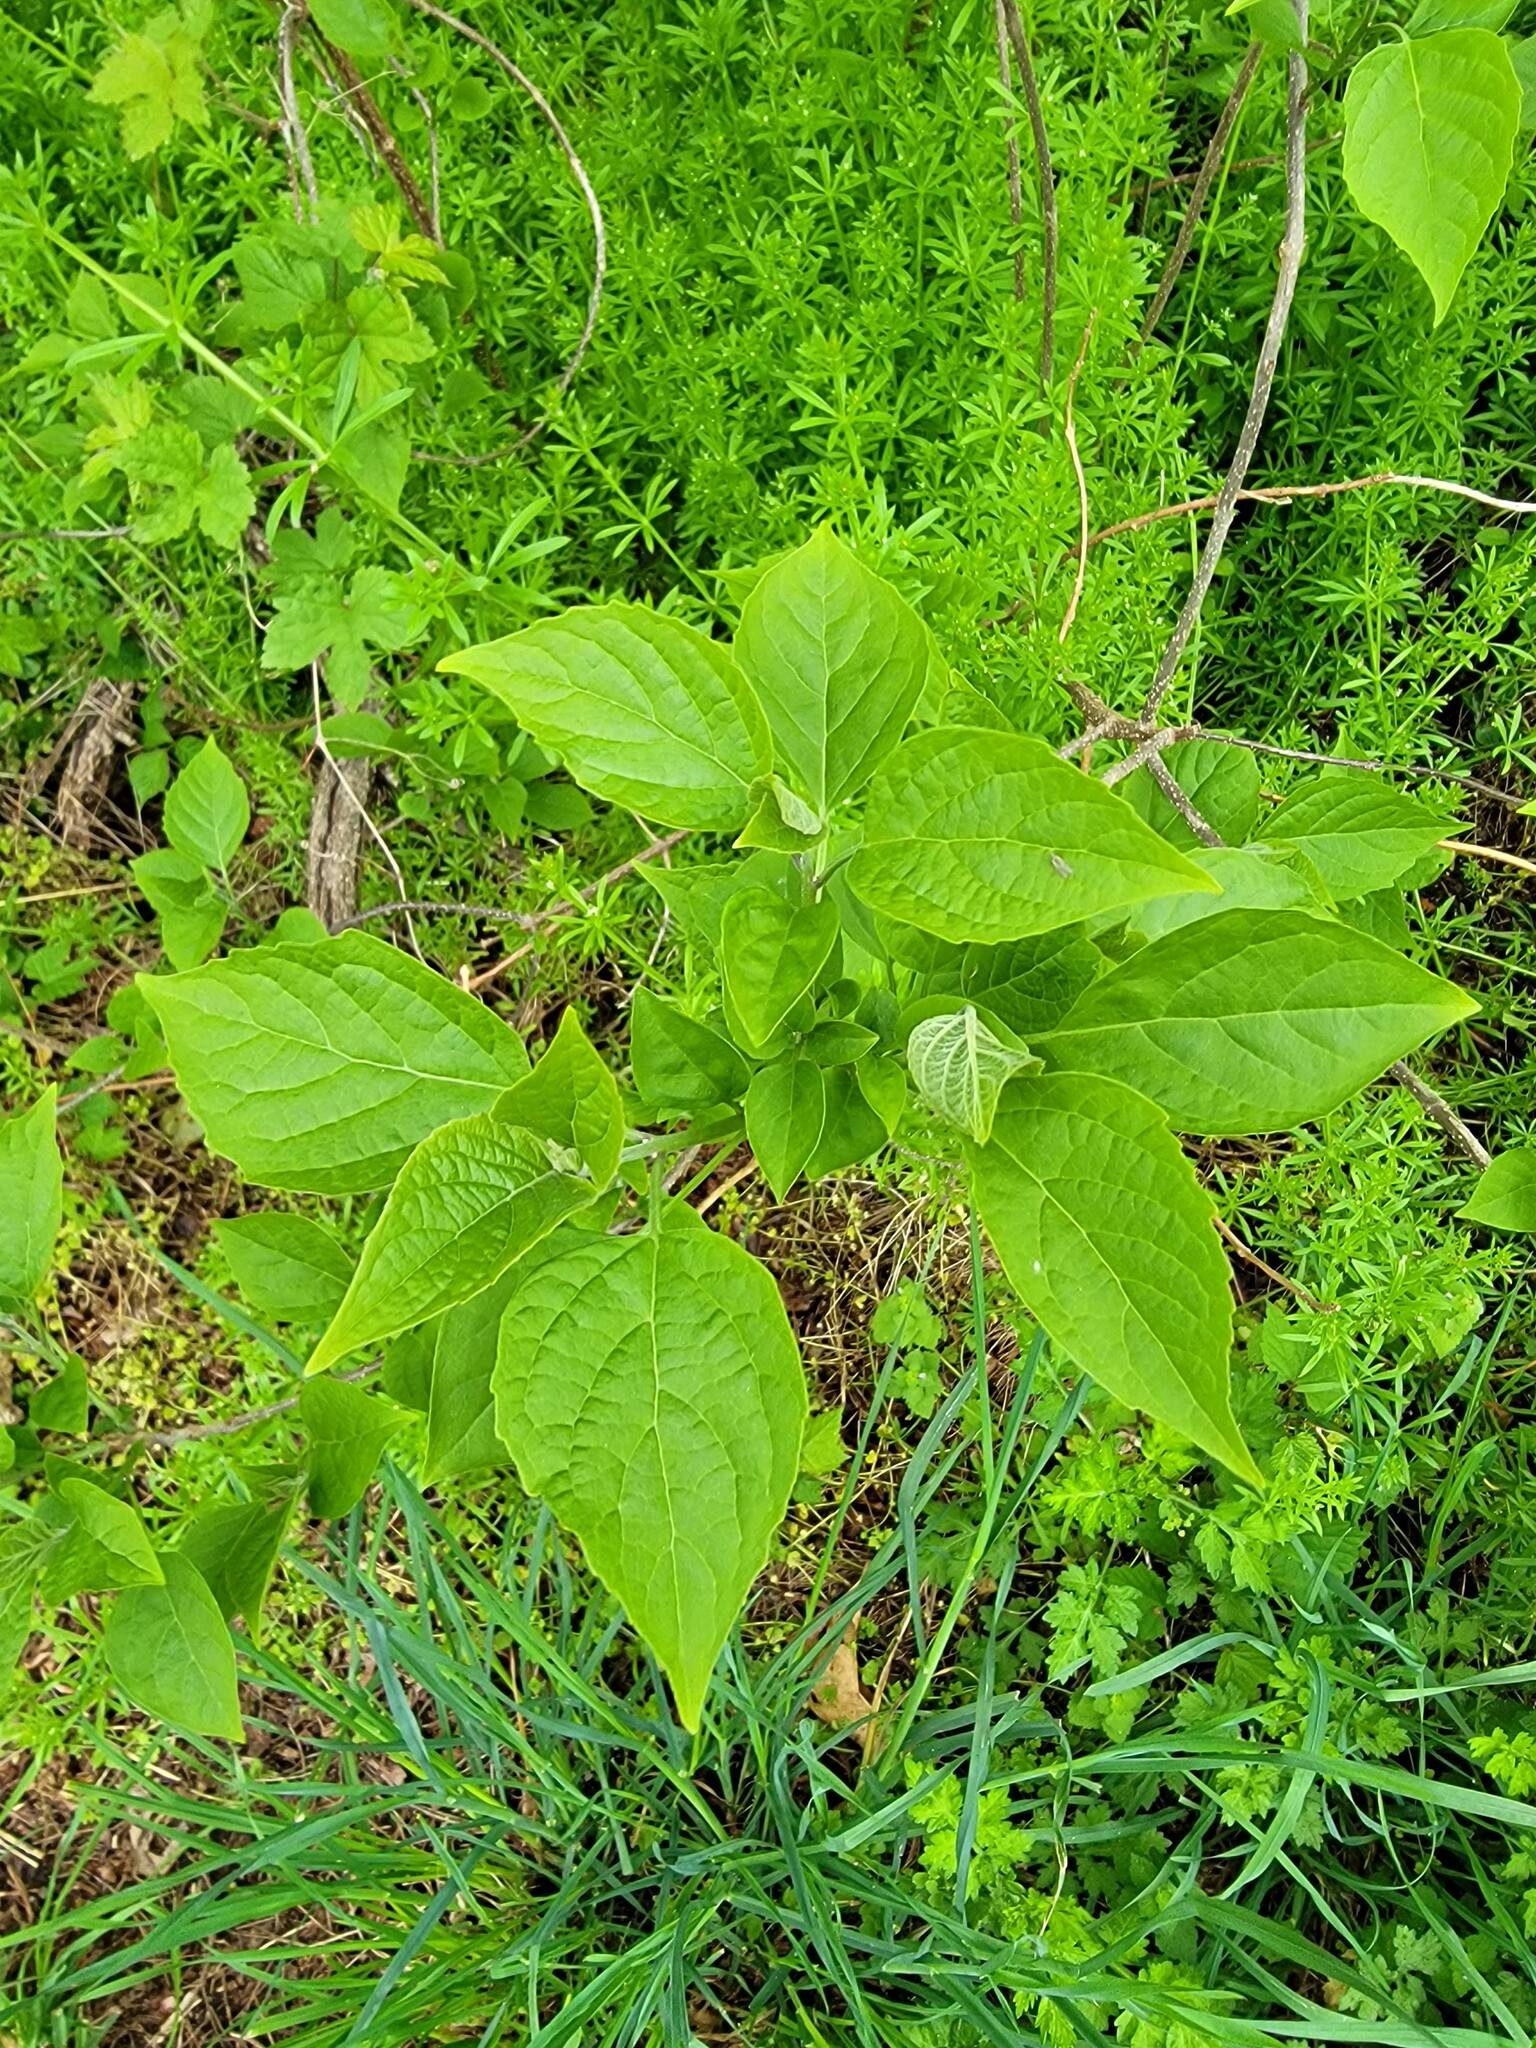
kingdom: Plantae
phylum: Tracheophyta
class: Magnoliopsida
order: Lamiales
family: Paulowniaceae
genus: Paulownia
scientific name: Paulownia tomentosa
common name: Foxglove-tree
